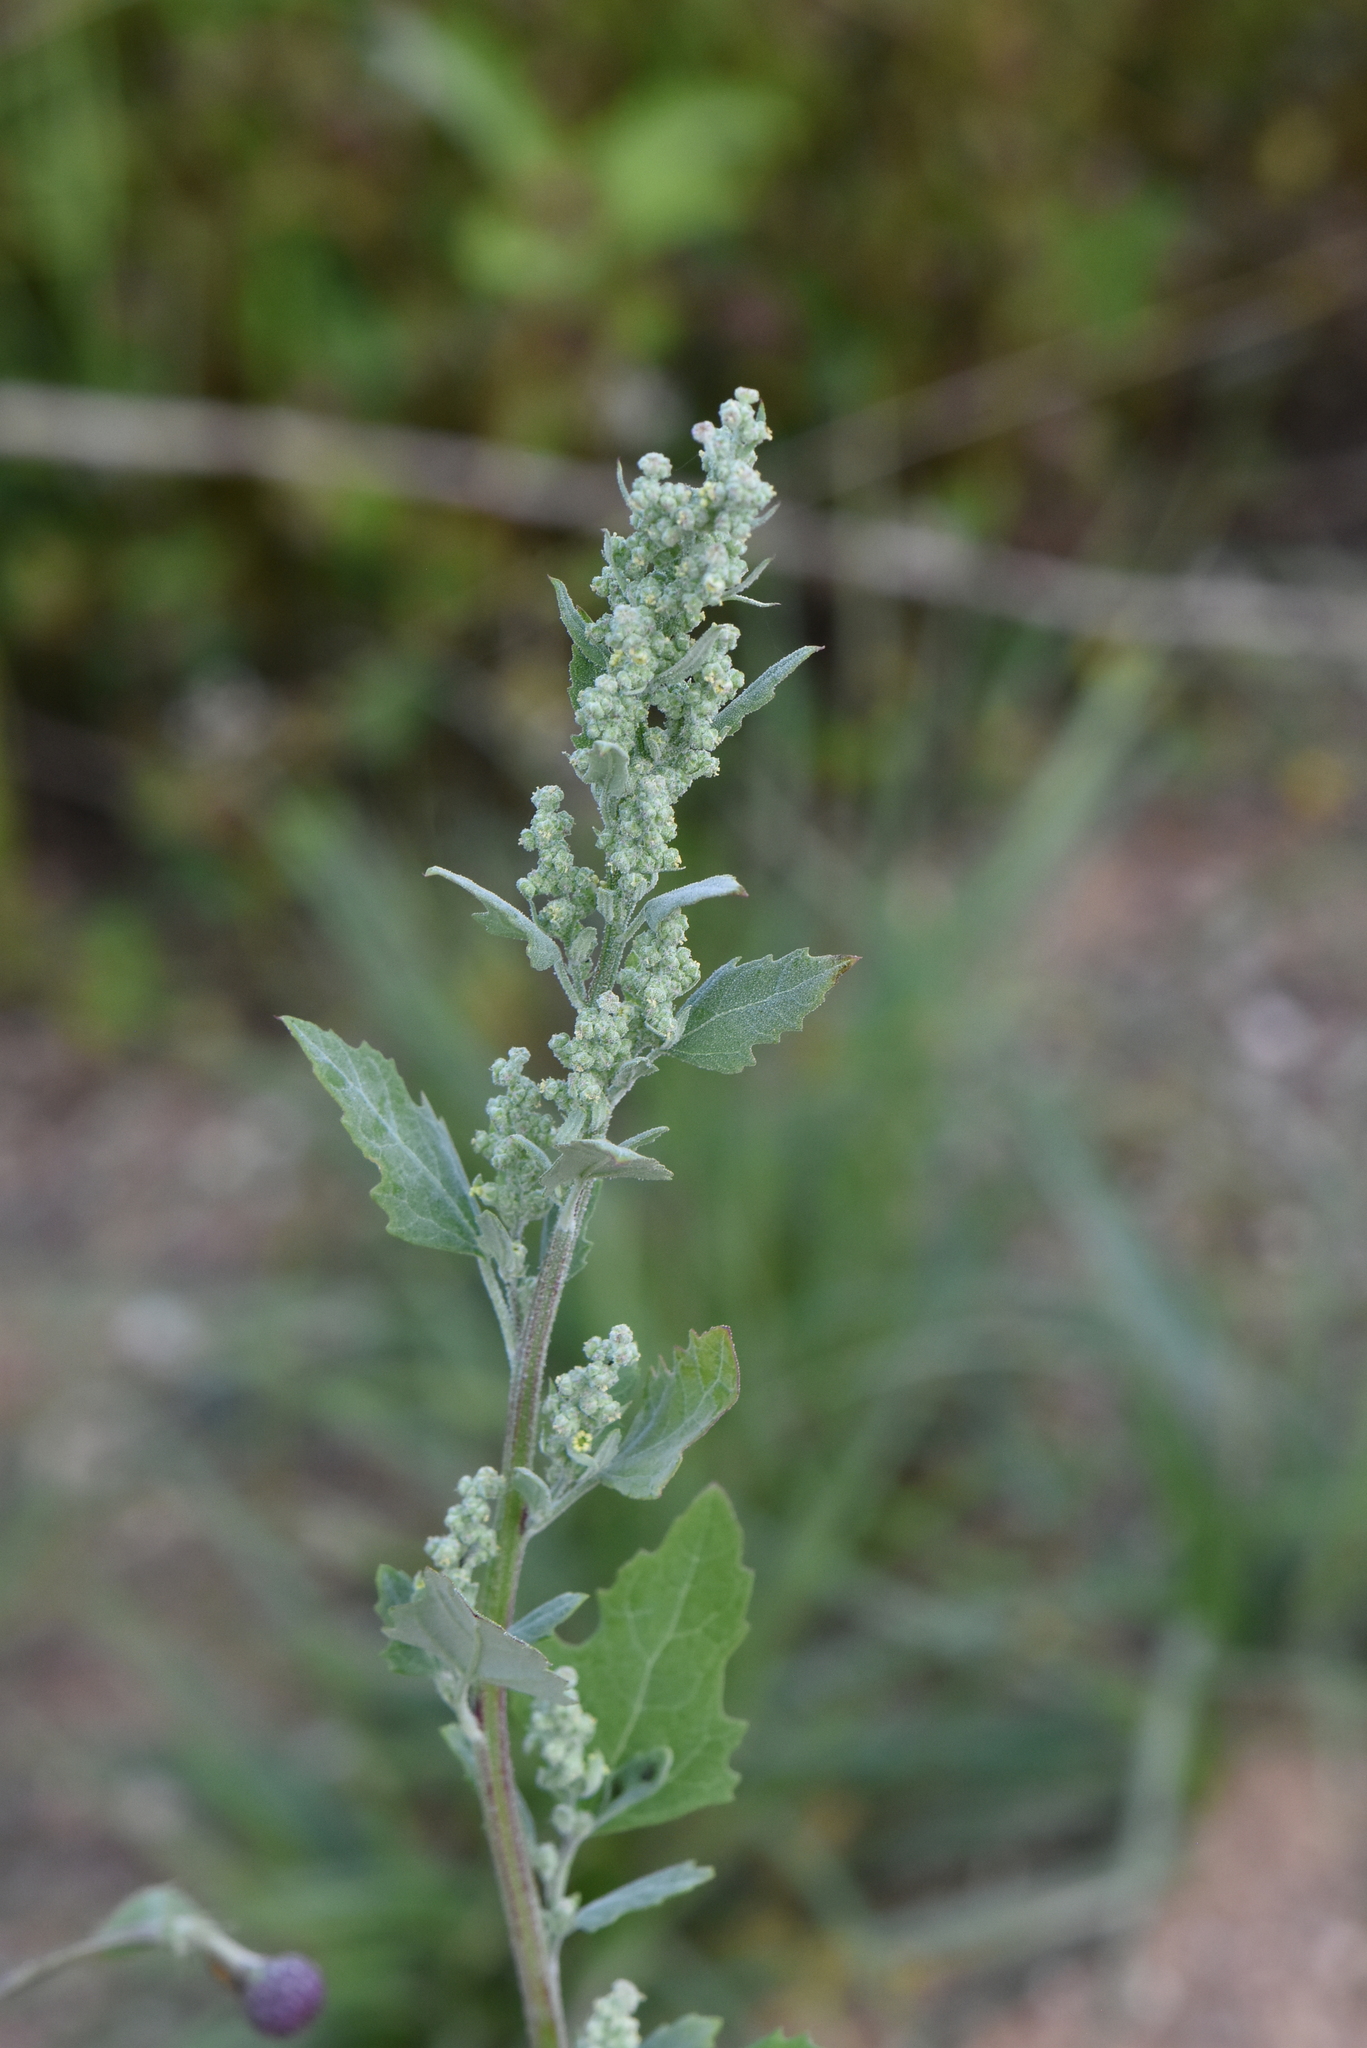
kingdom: Plantae
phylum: Tracheophyta
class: Magnoliopsida
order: Caryophyllales
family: Amaranthaceae
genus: Chenopodium
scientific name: Chenopodium album
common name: Fat-hen
